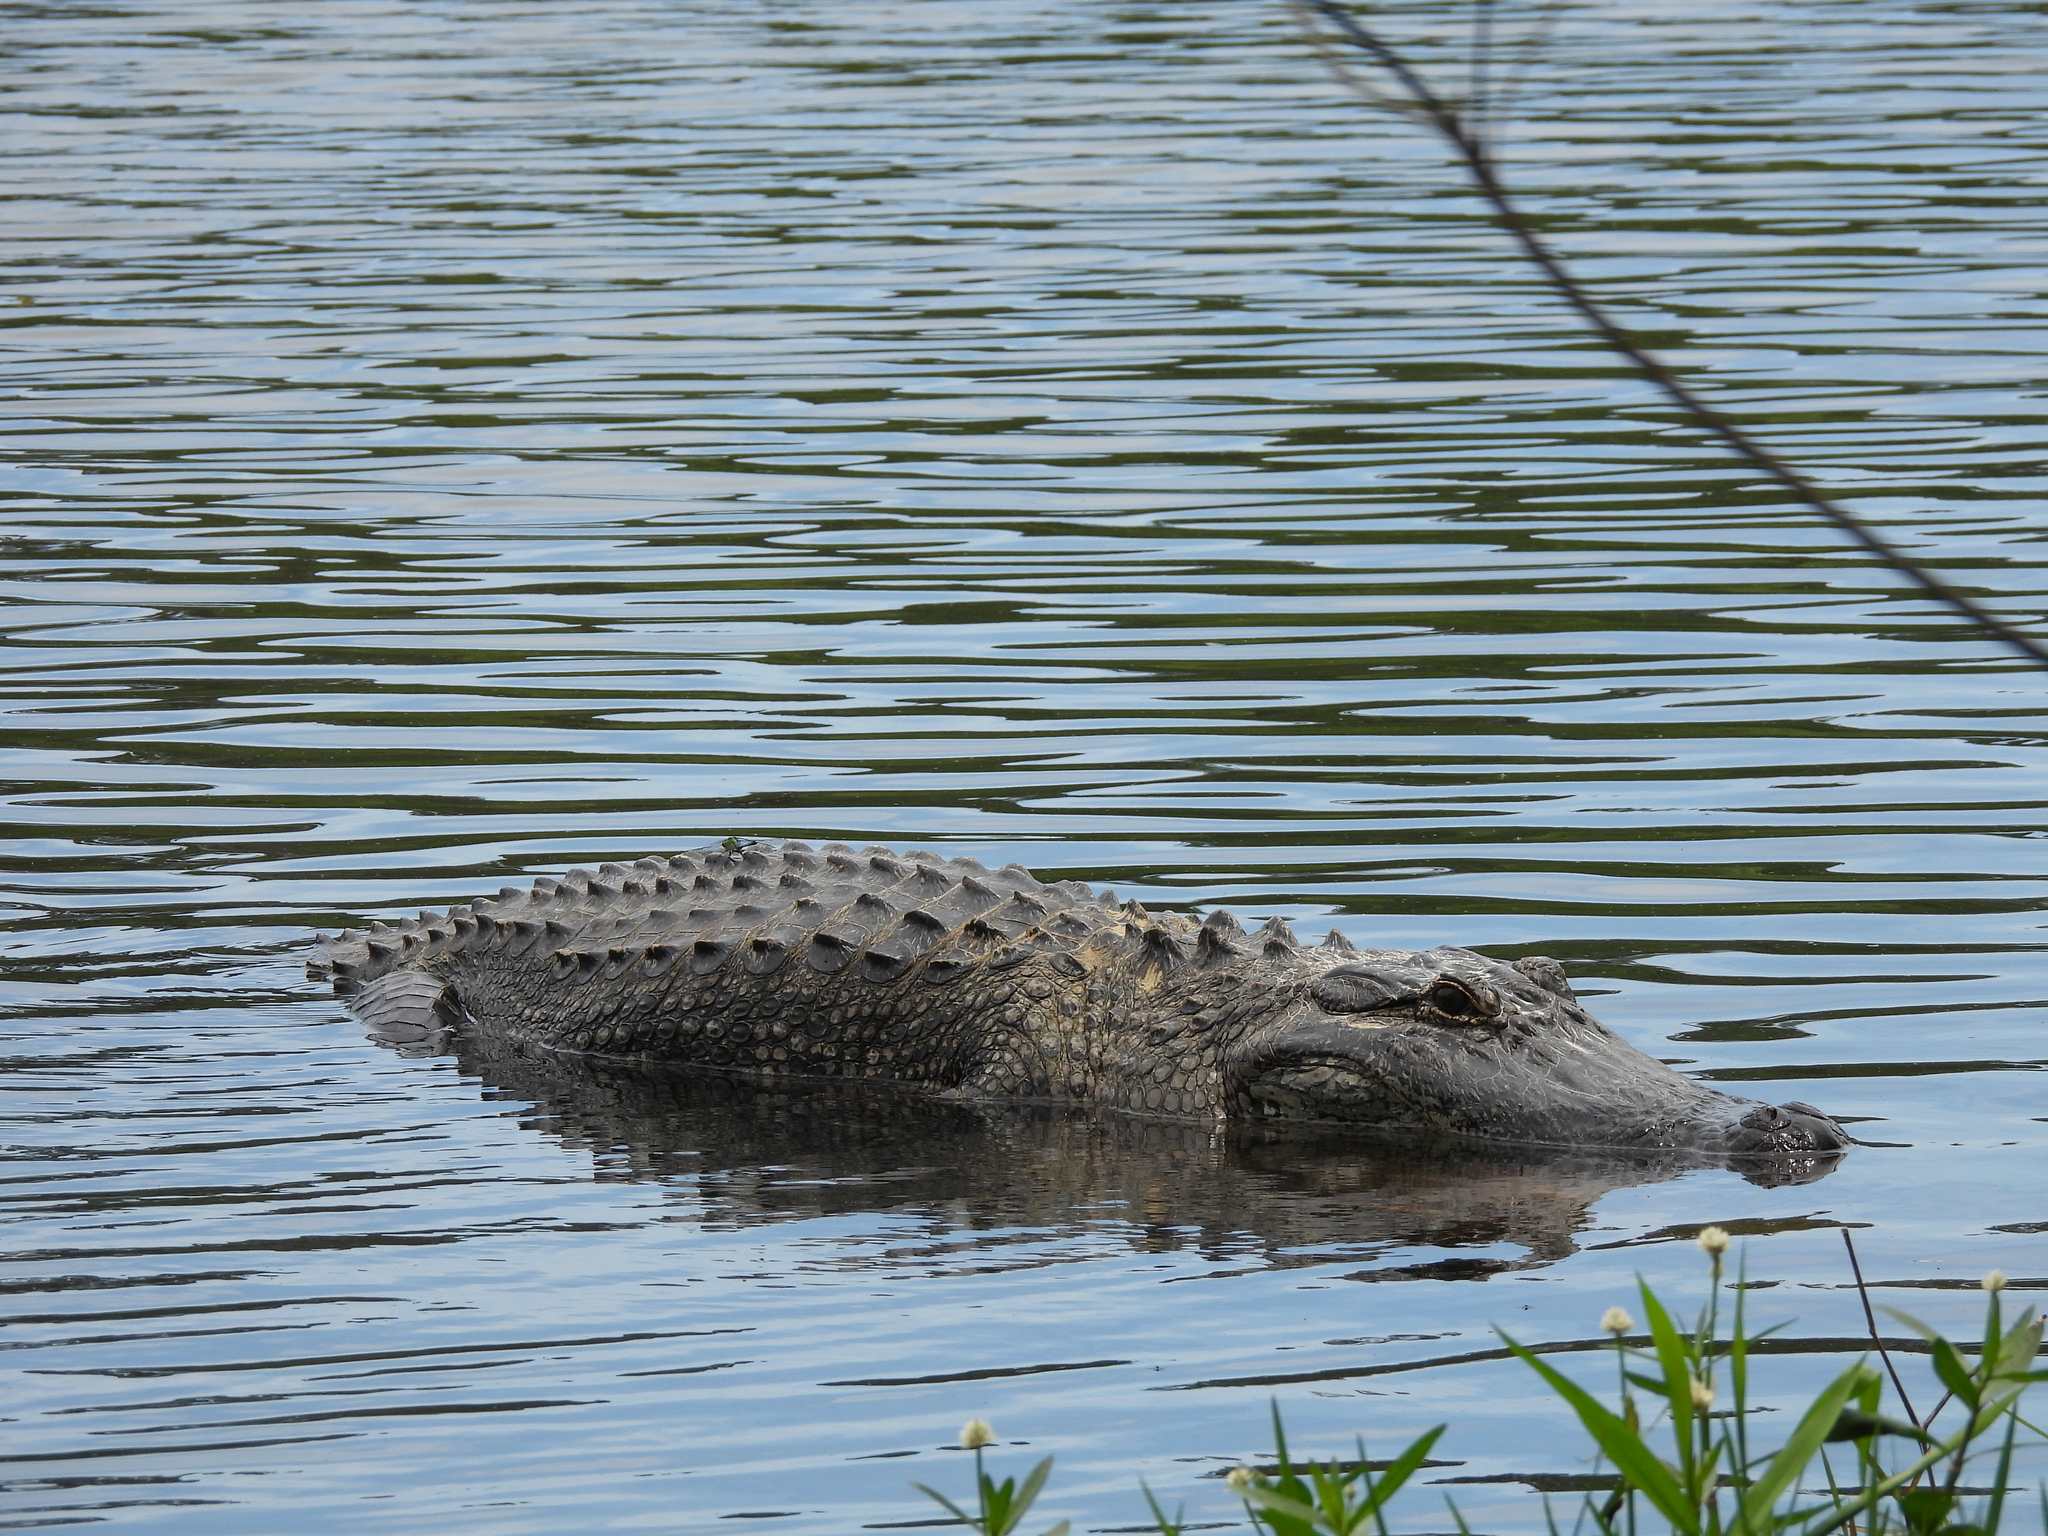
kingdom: Animalia
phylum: Chordata
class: Crocodylia
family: Alligatoridae
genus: Alligator
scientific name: Alligator mississippiensis
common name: American alligator
